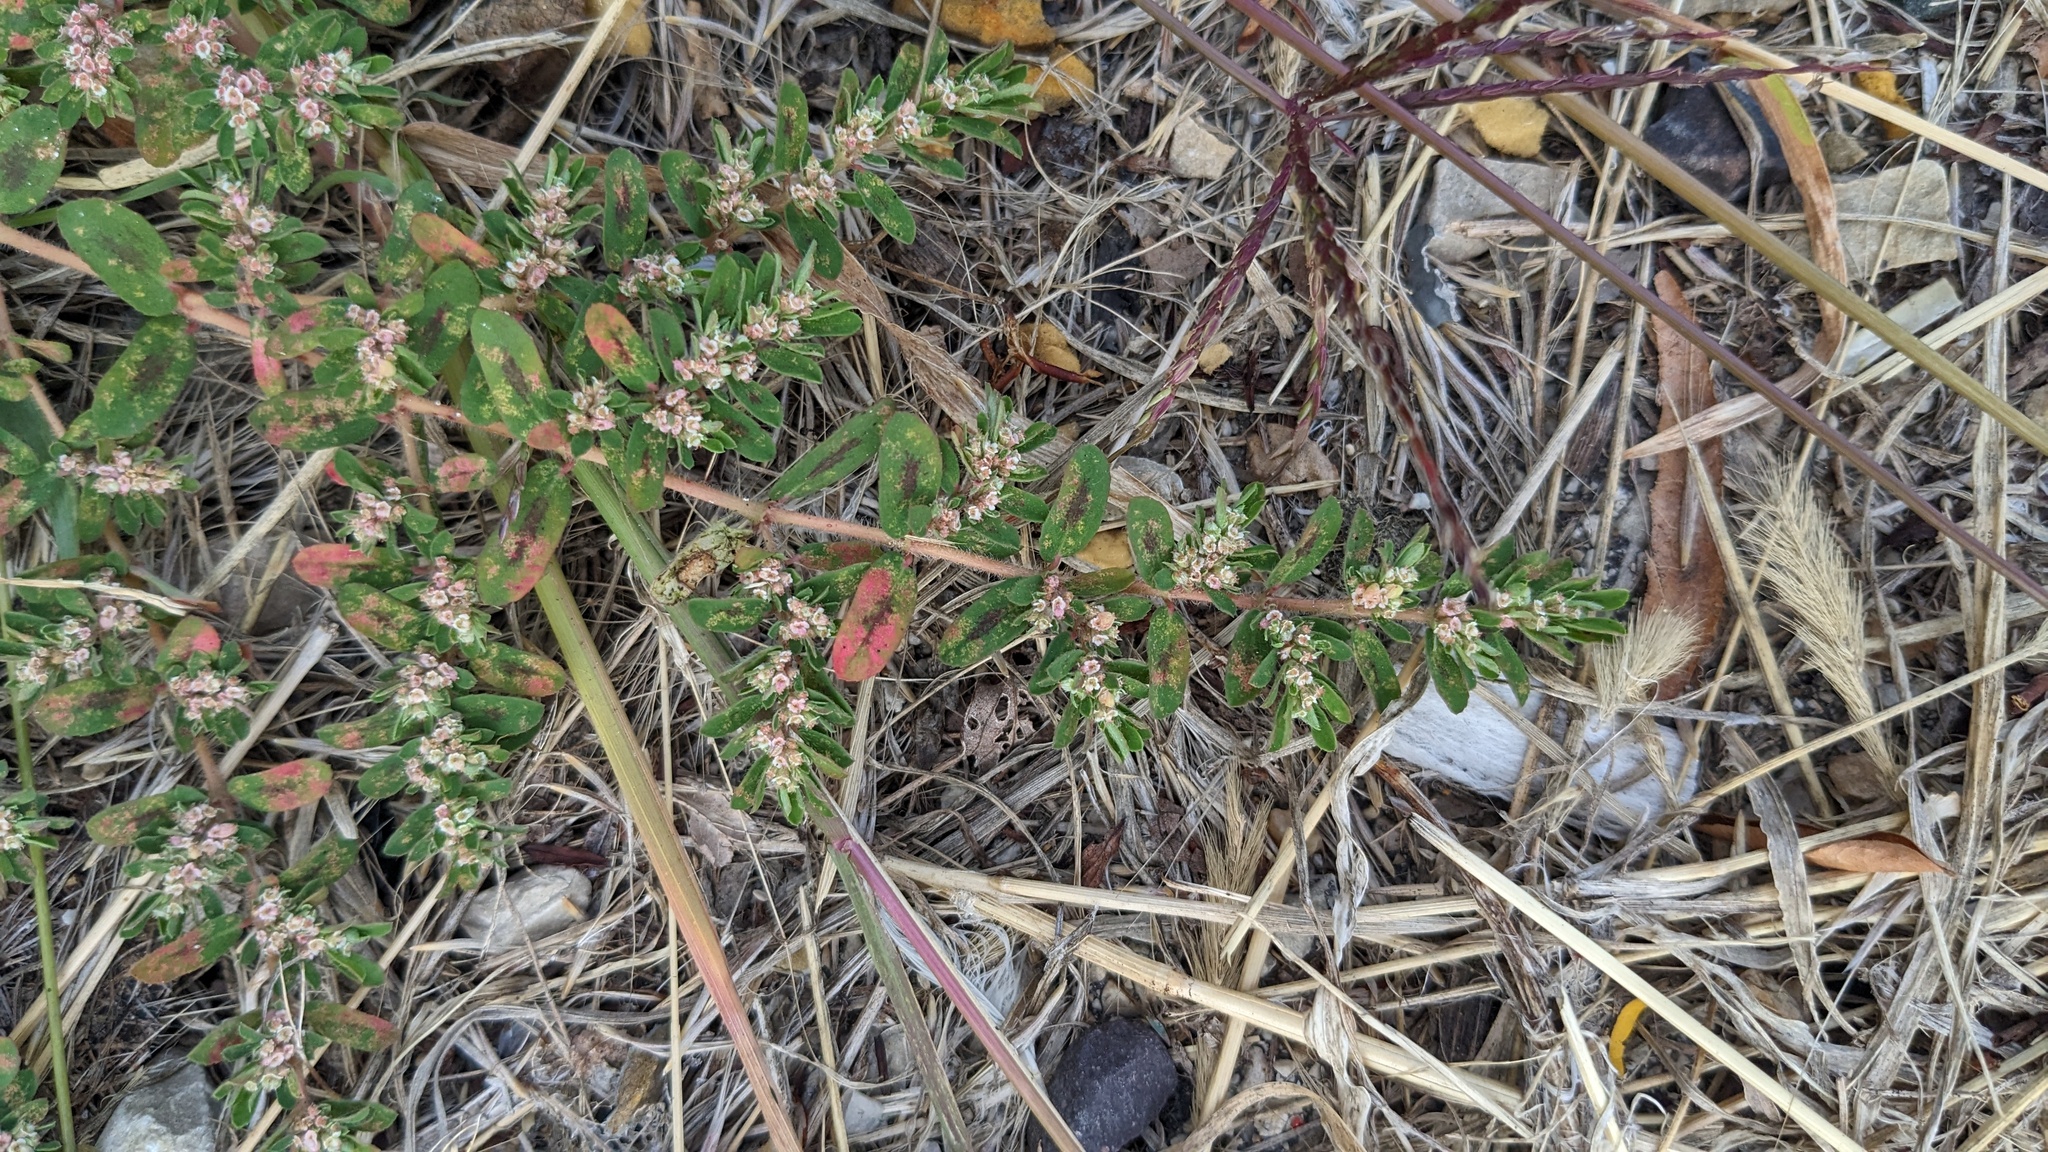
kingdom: Plantae
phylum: Tracheophyta
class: Magnoliopsida
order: Malpighiales
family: Euphorbiaceae
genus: Euphorbia
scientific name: Euphorbia maculata
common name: Spotted spurge
